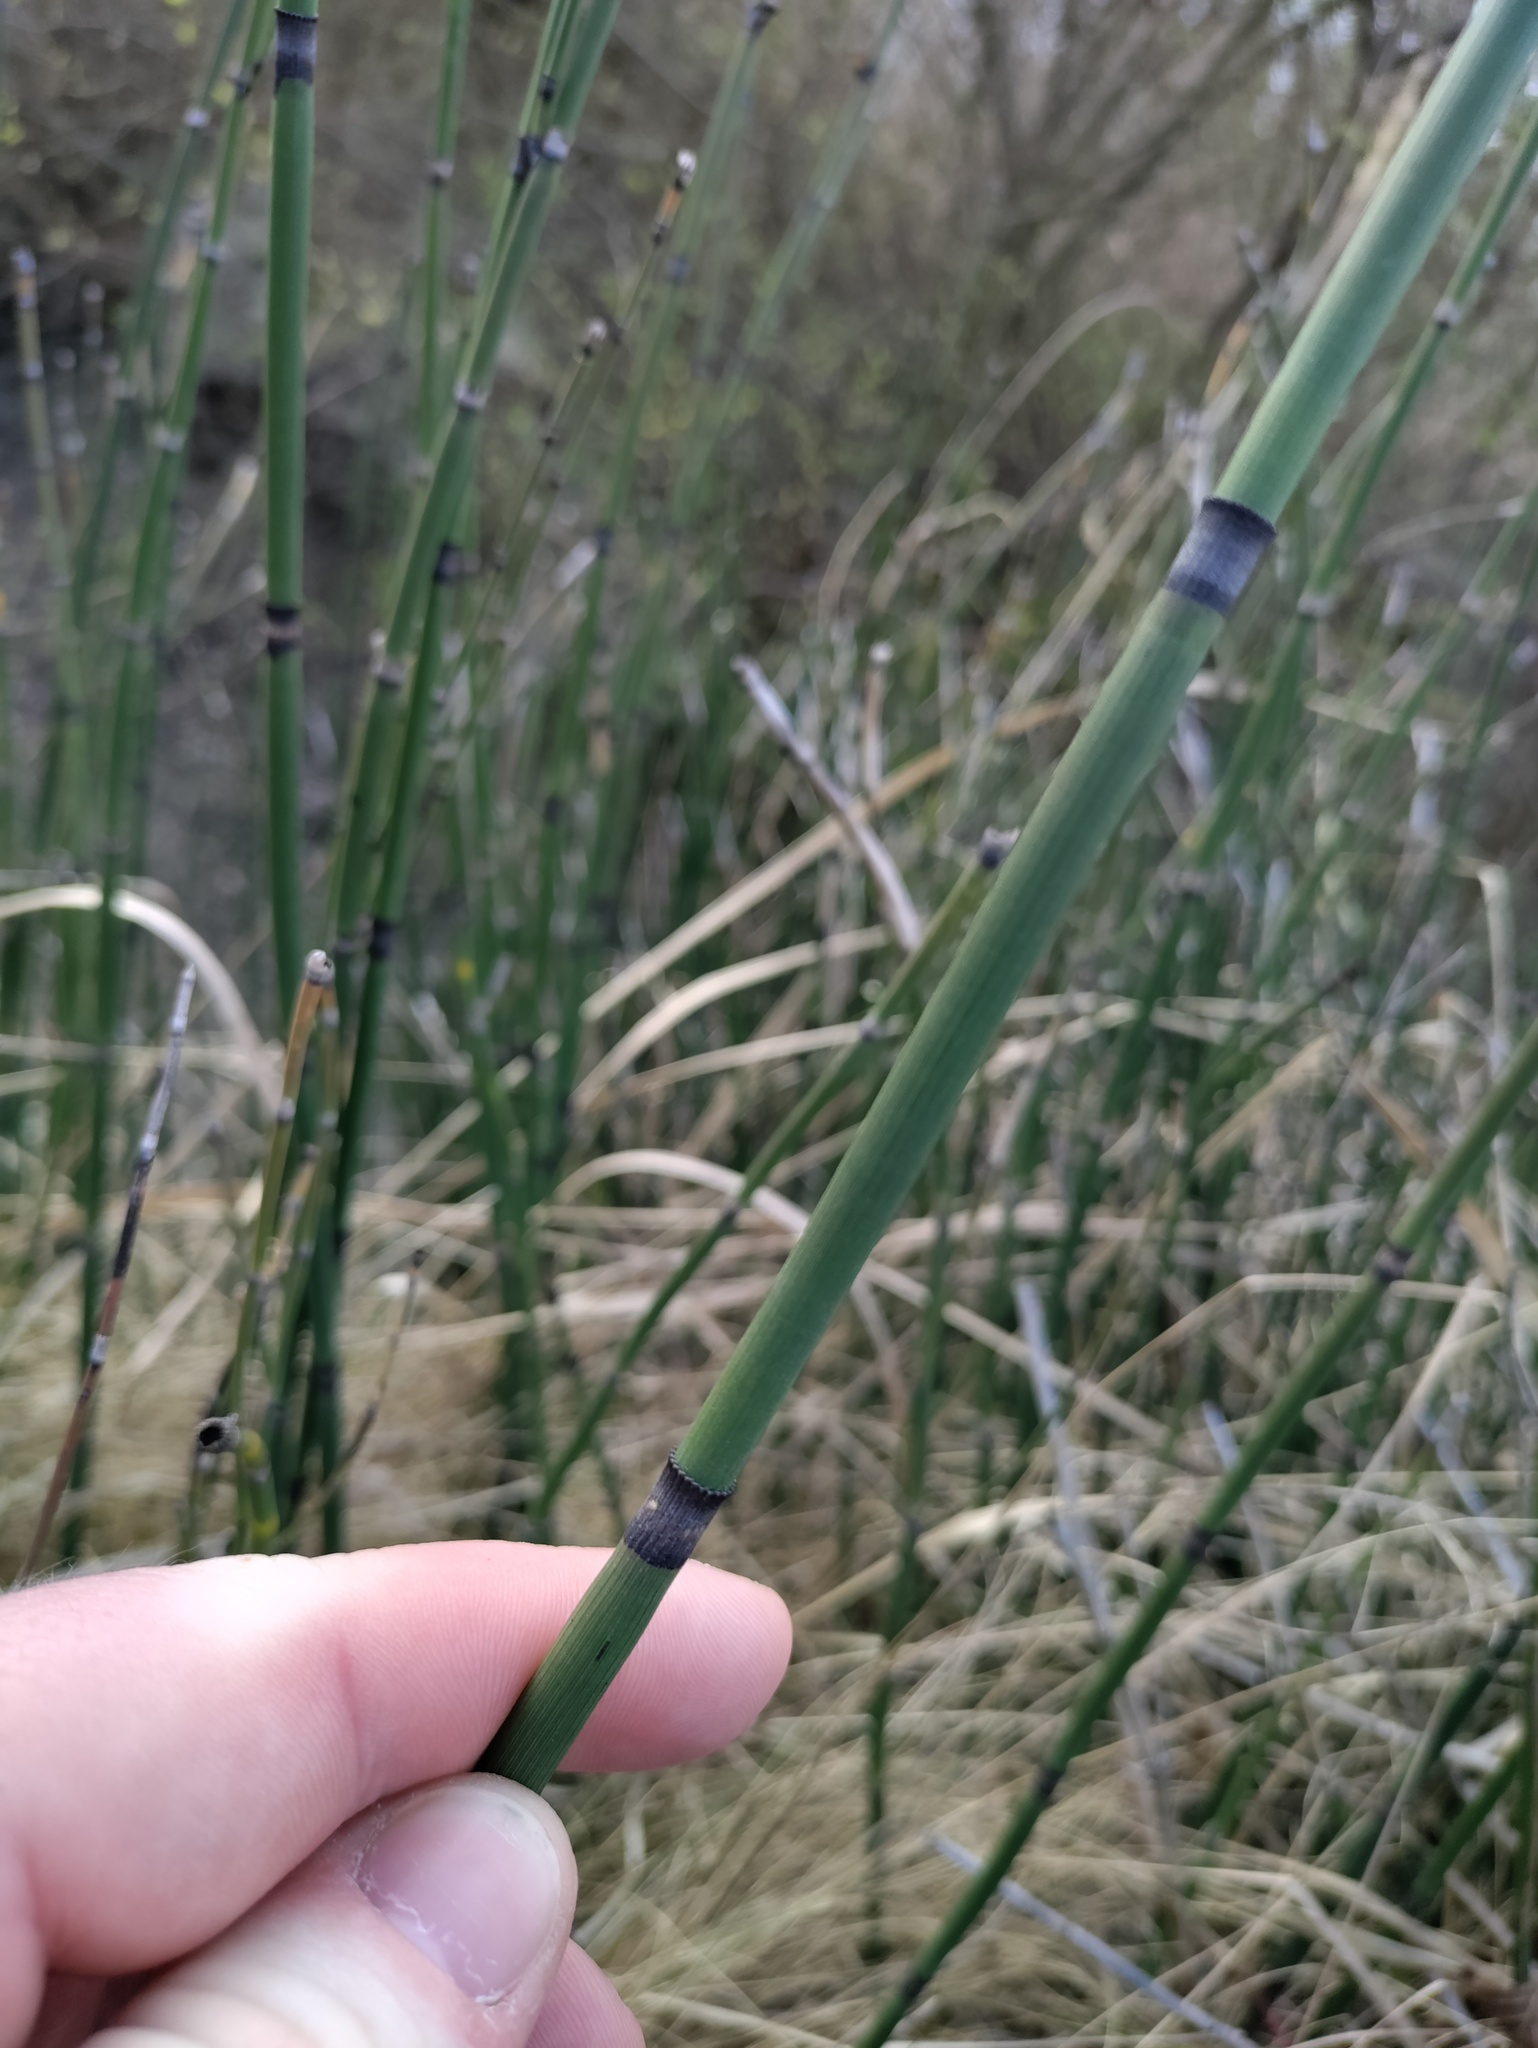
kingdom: Plantae
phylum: Tracheophyta
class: Polypodiopsida
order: Equisetales
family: Equisetaceae
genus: Equisetum
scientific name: Equisetum hyemale
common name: Rough horsetail
